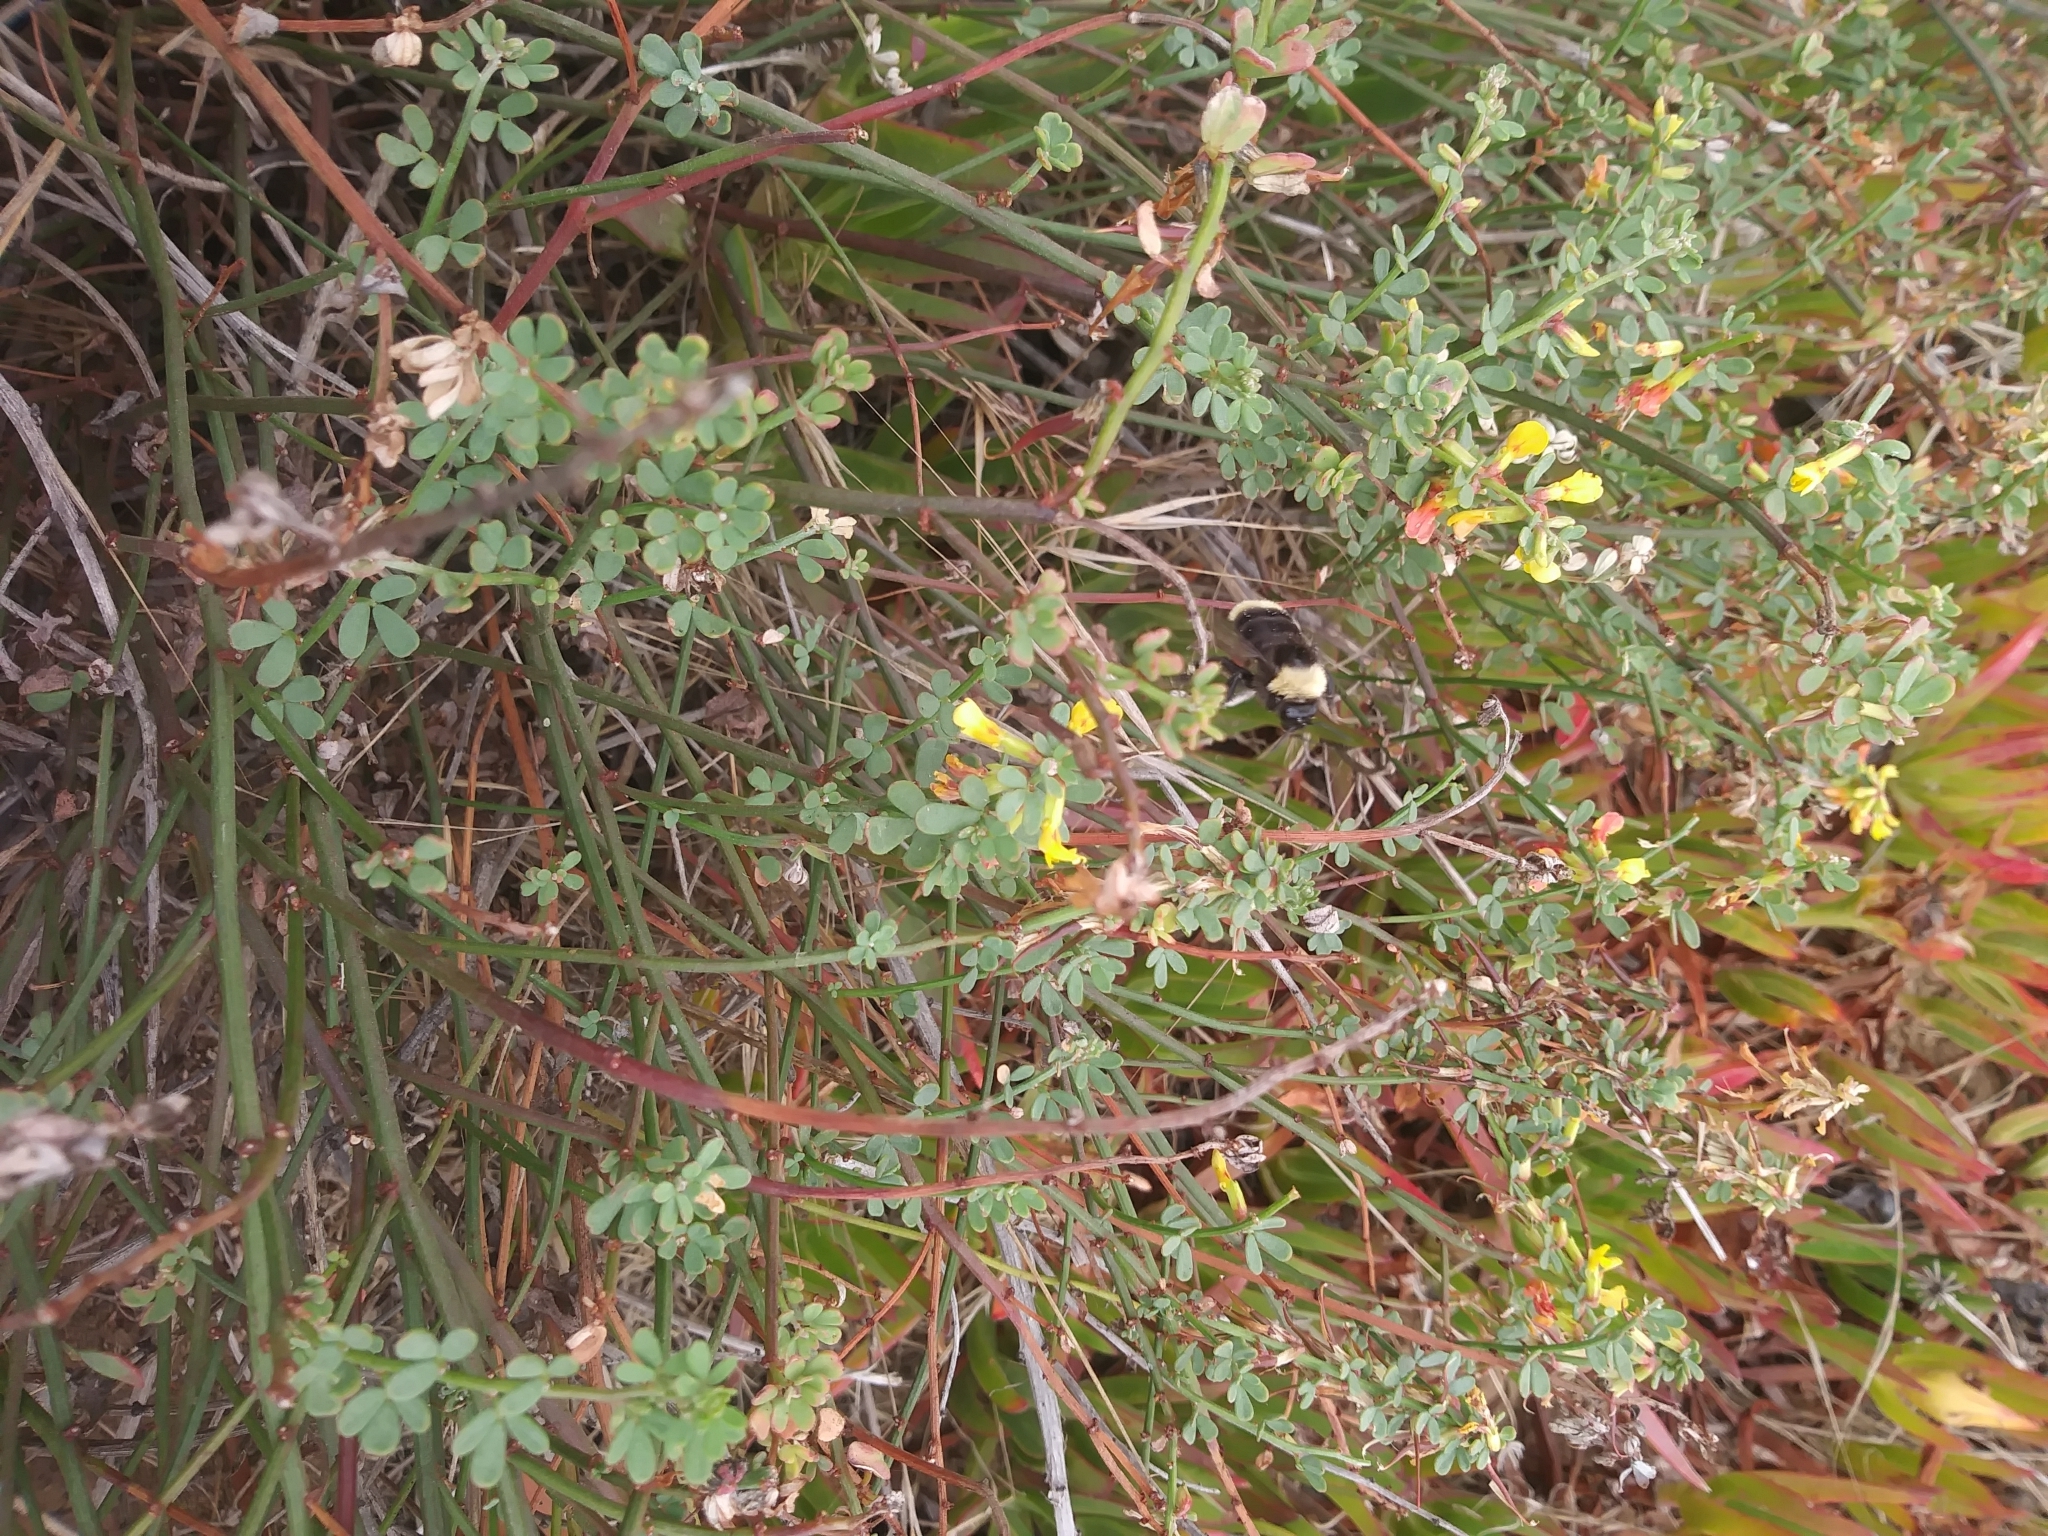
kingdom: Animalia
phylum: Arthropoda
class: Insecta
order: Hymenoptera
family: Apidae
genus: Bombus
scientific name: Bombus californicus
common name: California bumble bee
